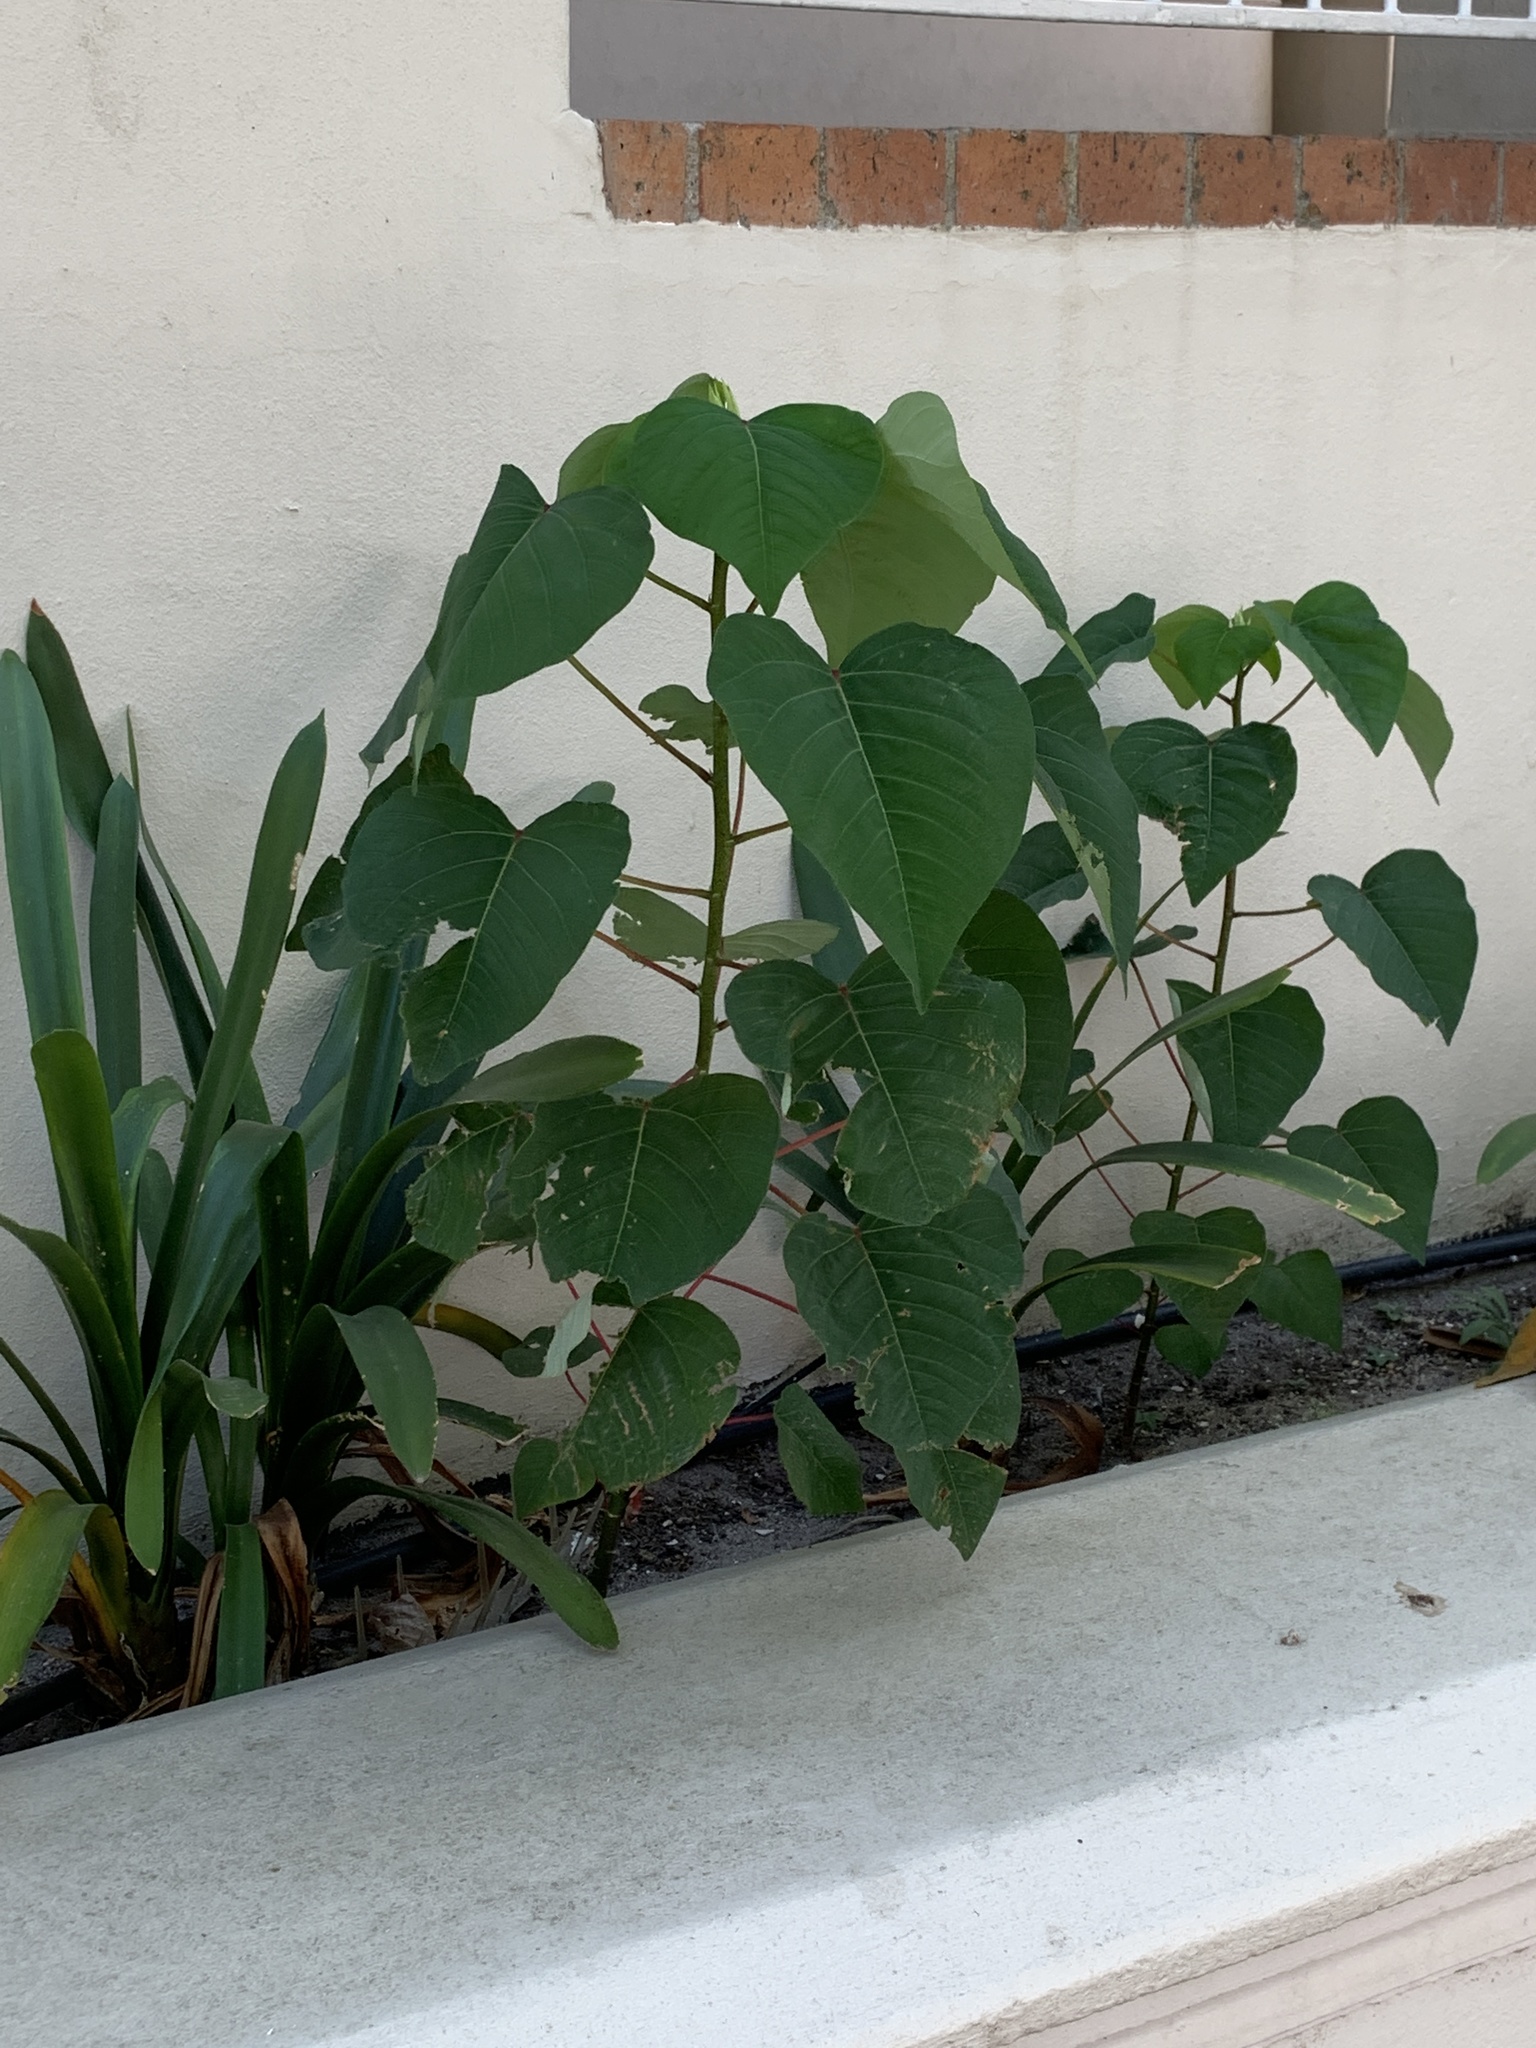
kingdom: Plantae
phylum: Tracheophyta
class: Magnoliopsida
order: Malpighiales
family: Euphorbiaceae
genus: Homalanthus
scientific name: Homalanthus populifolius
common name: Queensland poplar
